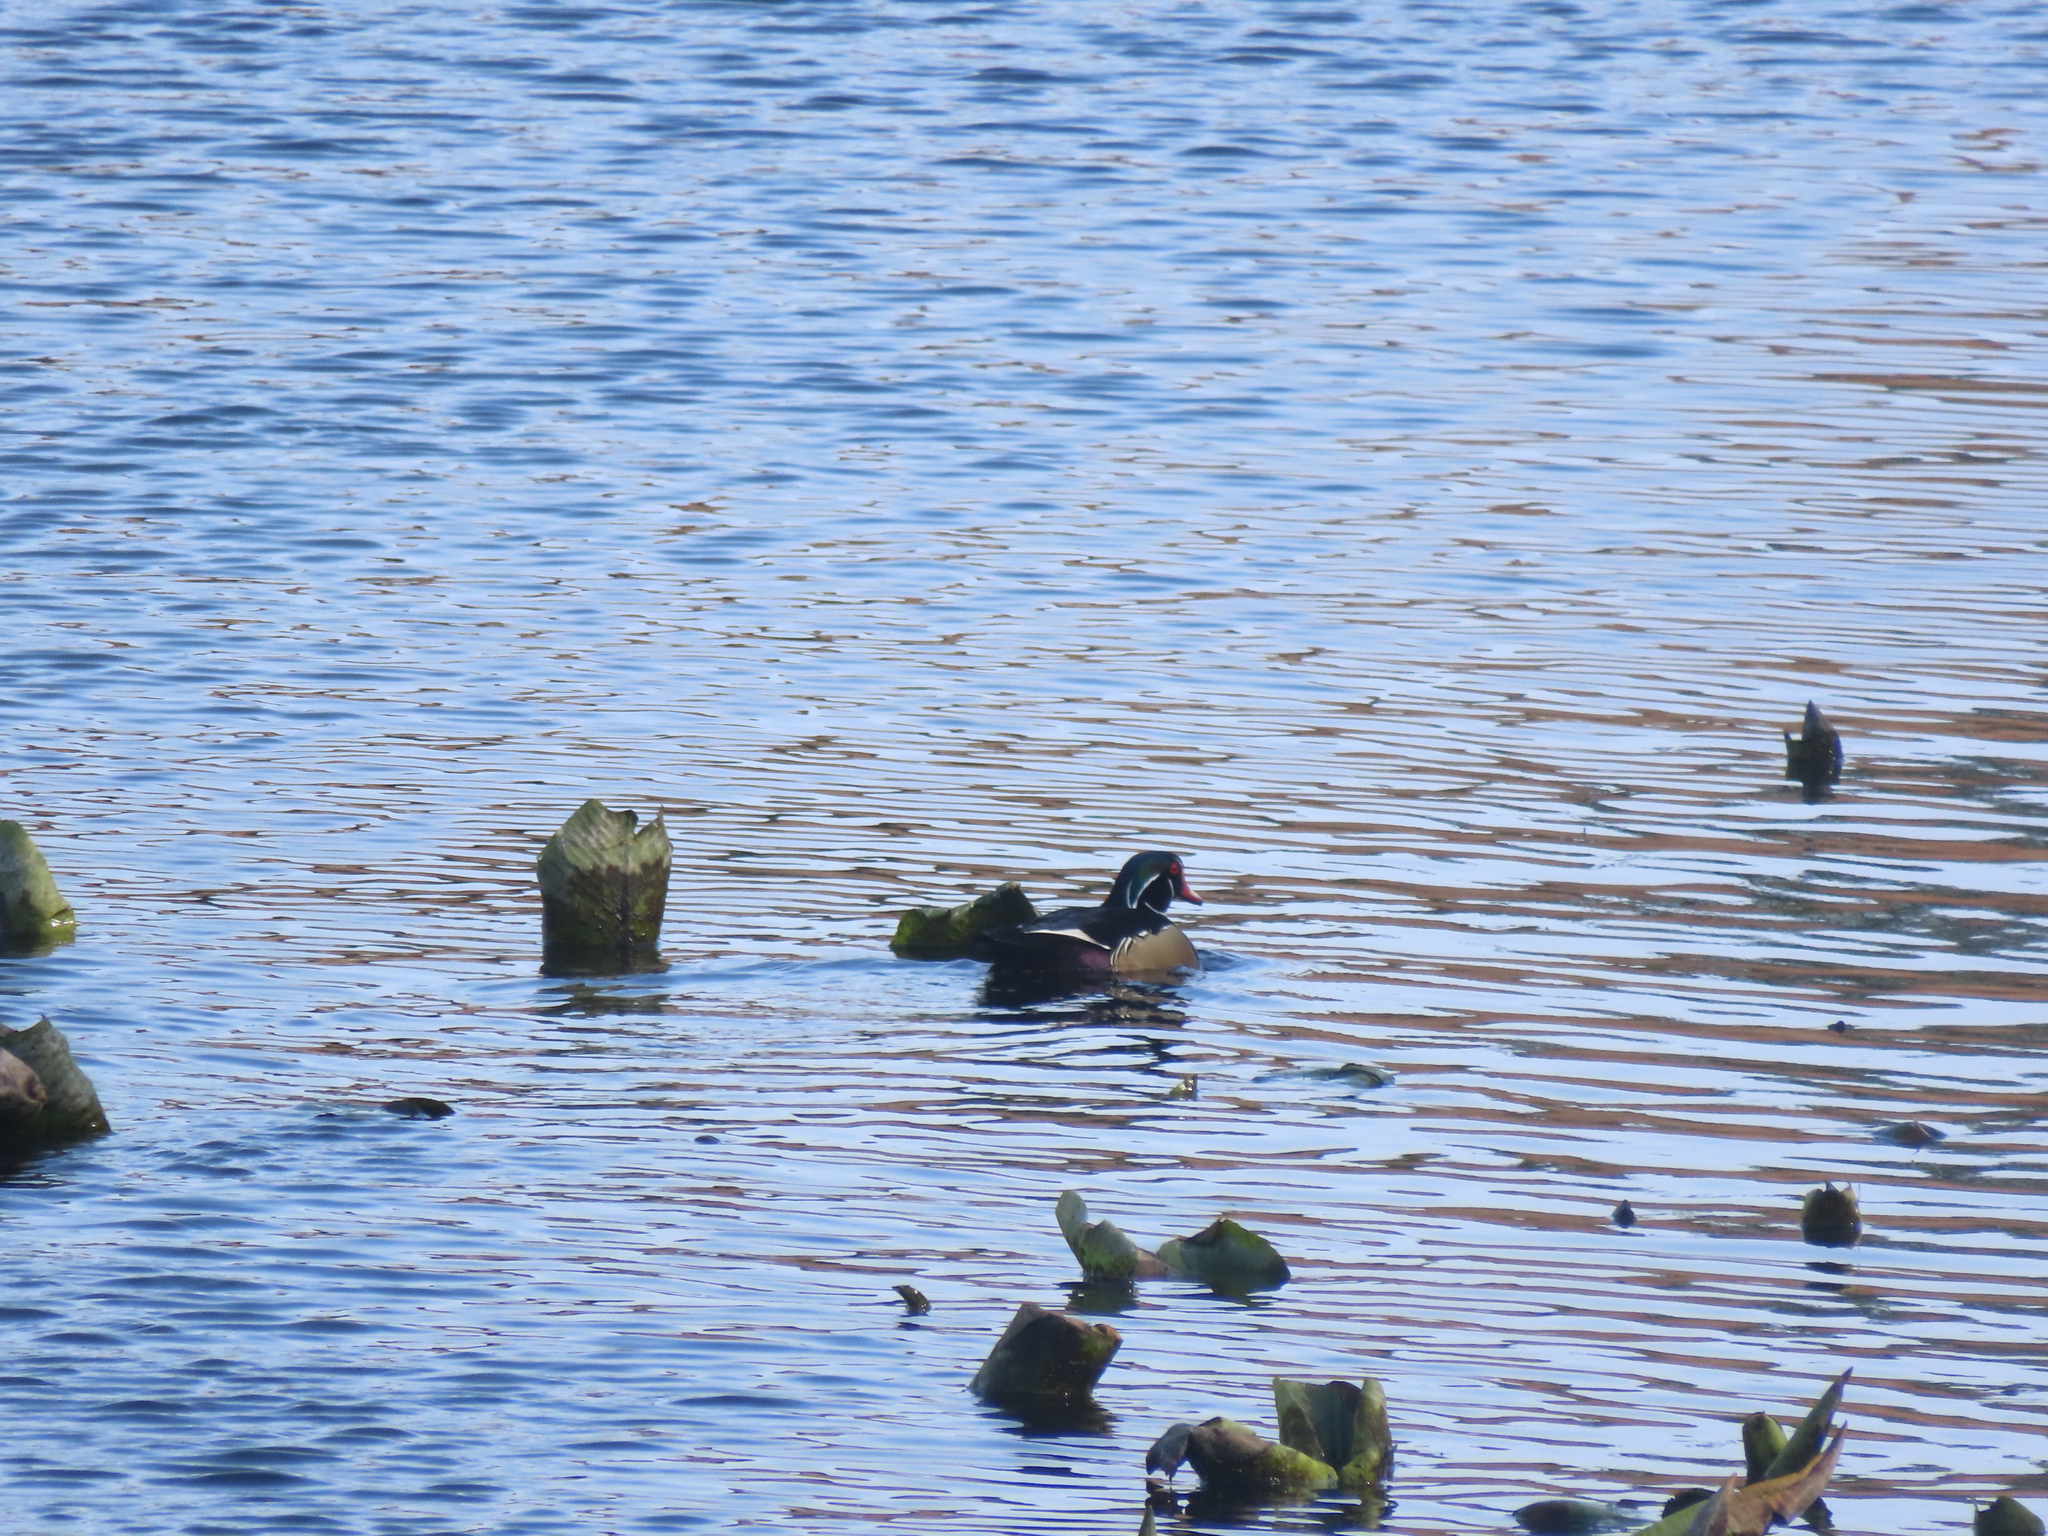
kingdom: Animalia
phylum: Chordata
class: Aves
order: Anseriformes
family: Anatidae
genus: Aix
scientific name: Aix sponsa
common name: Wood duck
